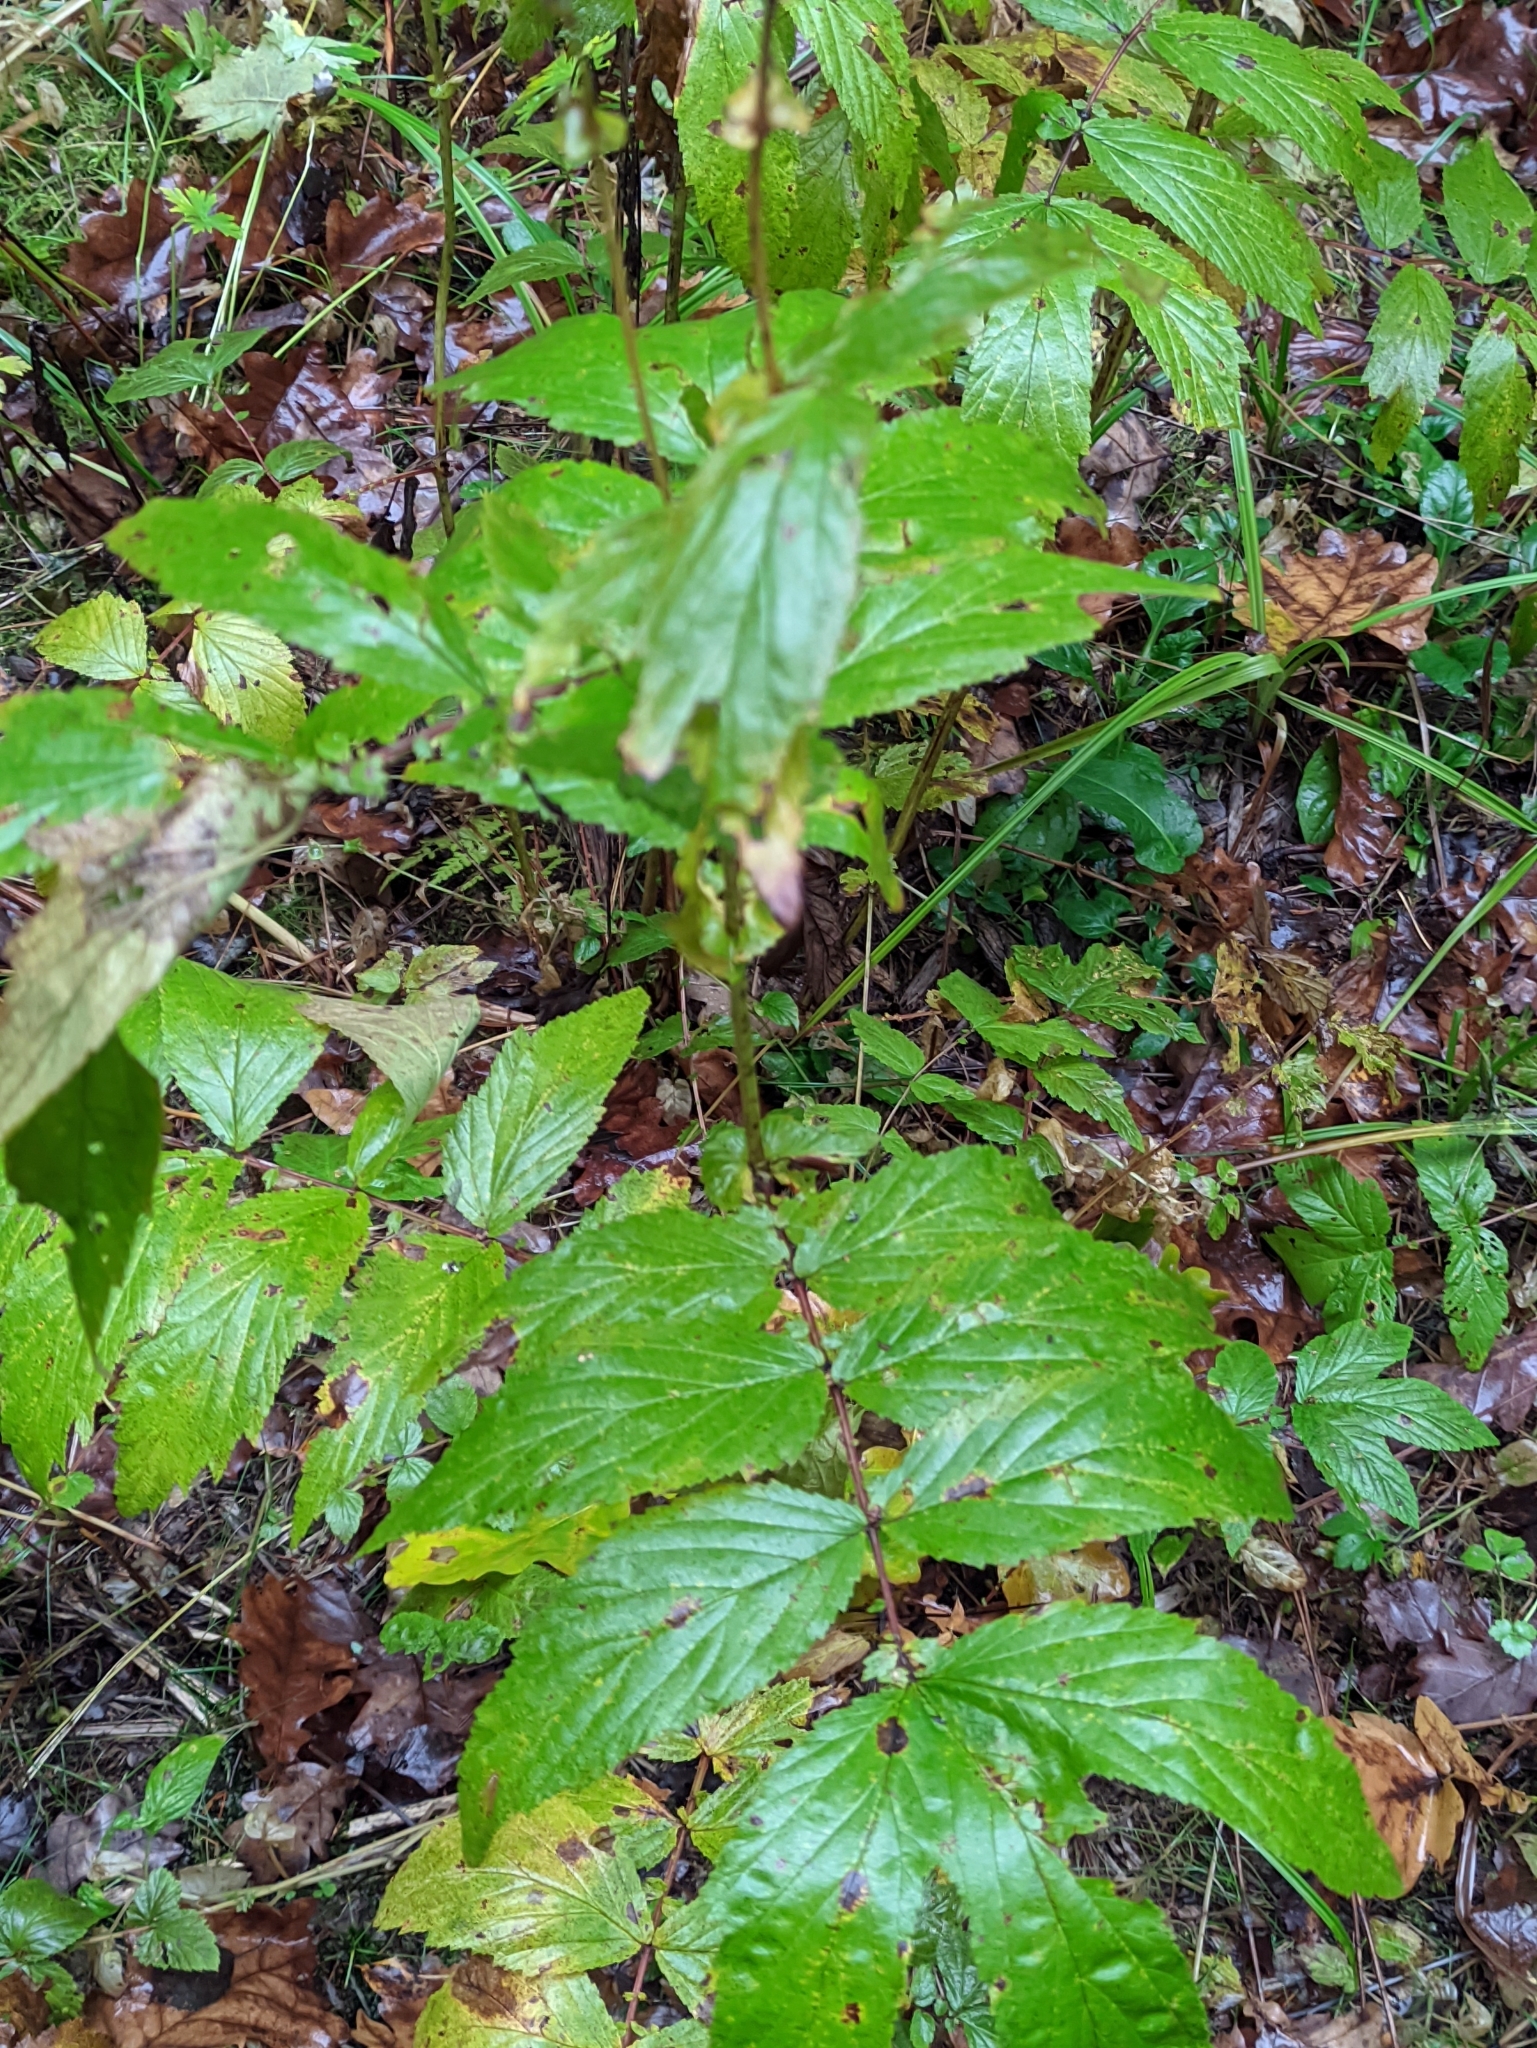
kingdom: Plantae
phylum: Tracheophyta
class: Magnoliopsida
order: Rosales
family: Rosaceae
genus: Filipendula
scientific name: Filipendula ulmaria
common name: Meadowsweet
